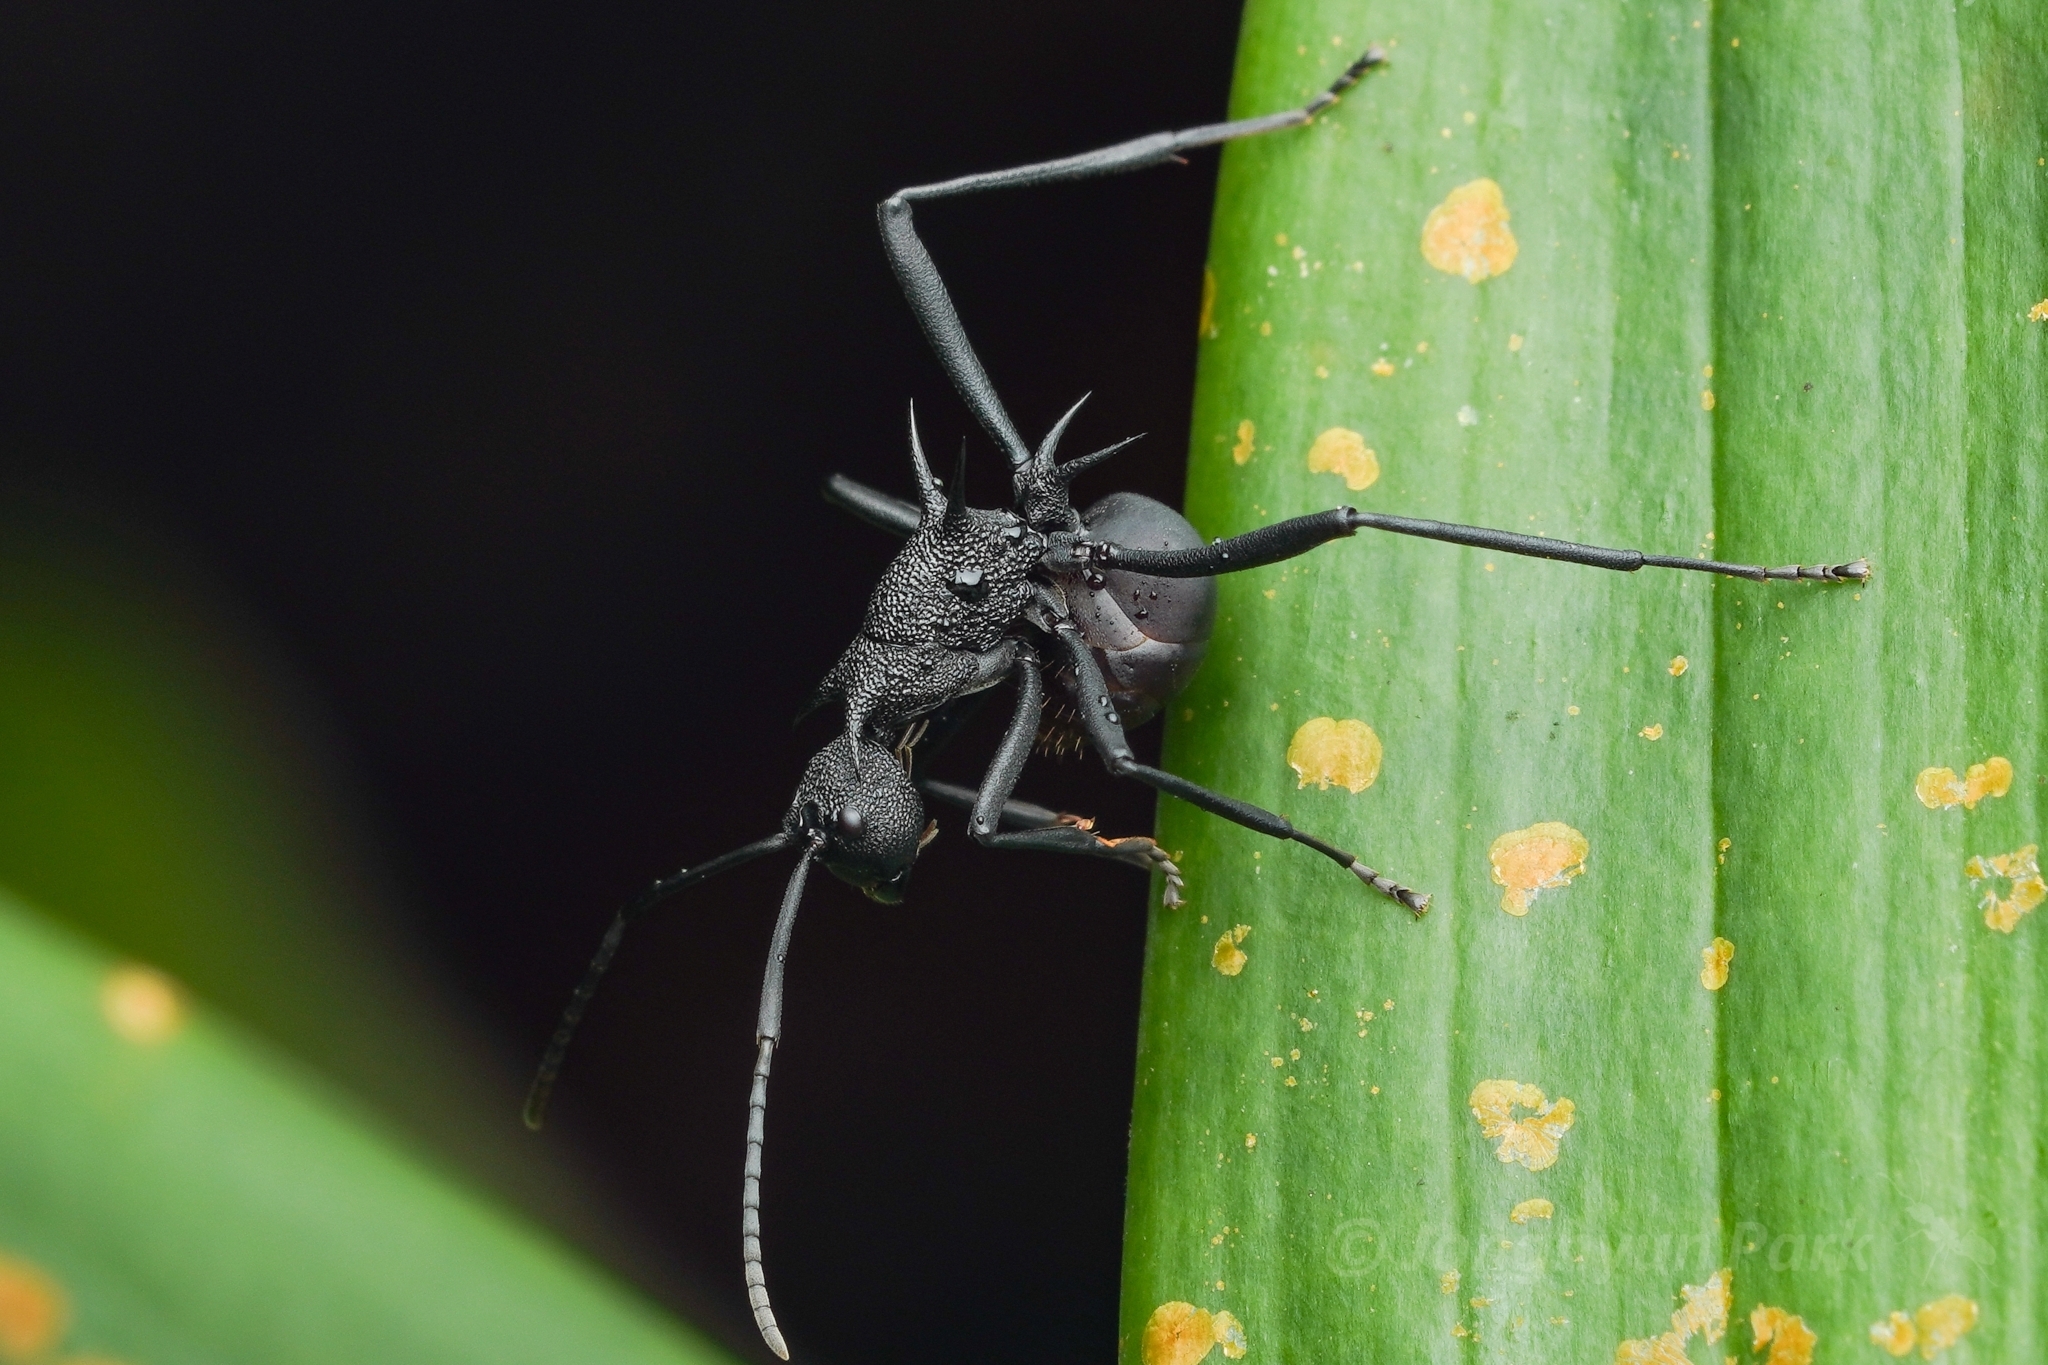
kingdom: Animalia
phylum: Arthropoda
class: Insecta
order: Hymenoptera
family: Formicidae
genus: Polyrhachis
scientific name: Polyrhachis armata
